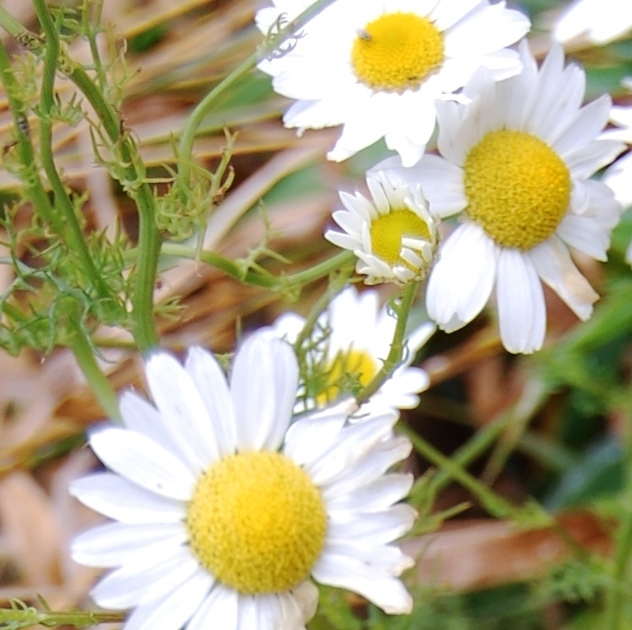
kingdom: Plantae
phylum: Tracheophyta
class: Magnoliopsida
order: Asterales
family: Asteraceae
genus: Matricaria
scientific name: Matricaria chamomilla
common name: Scented mayweed
